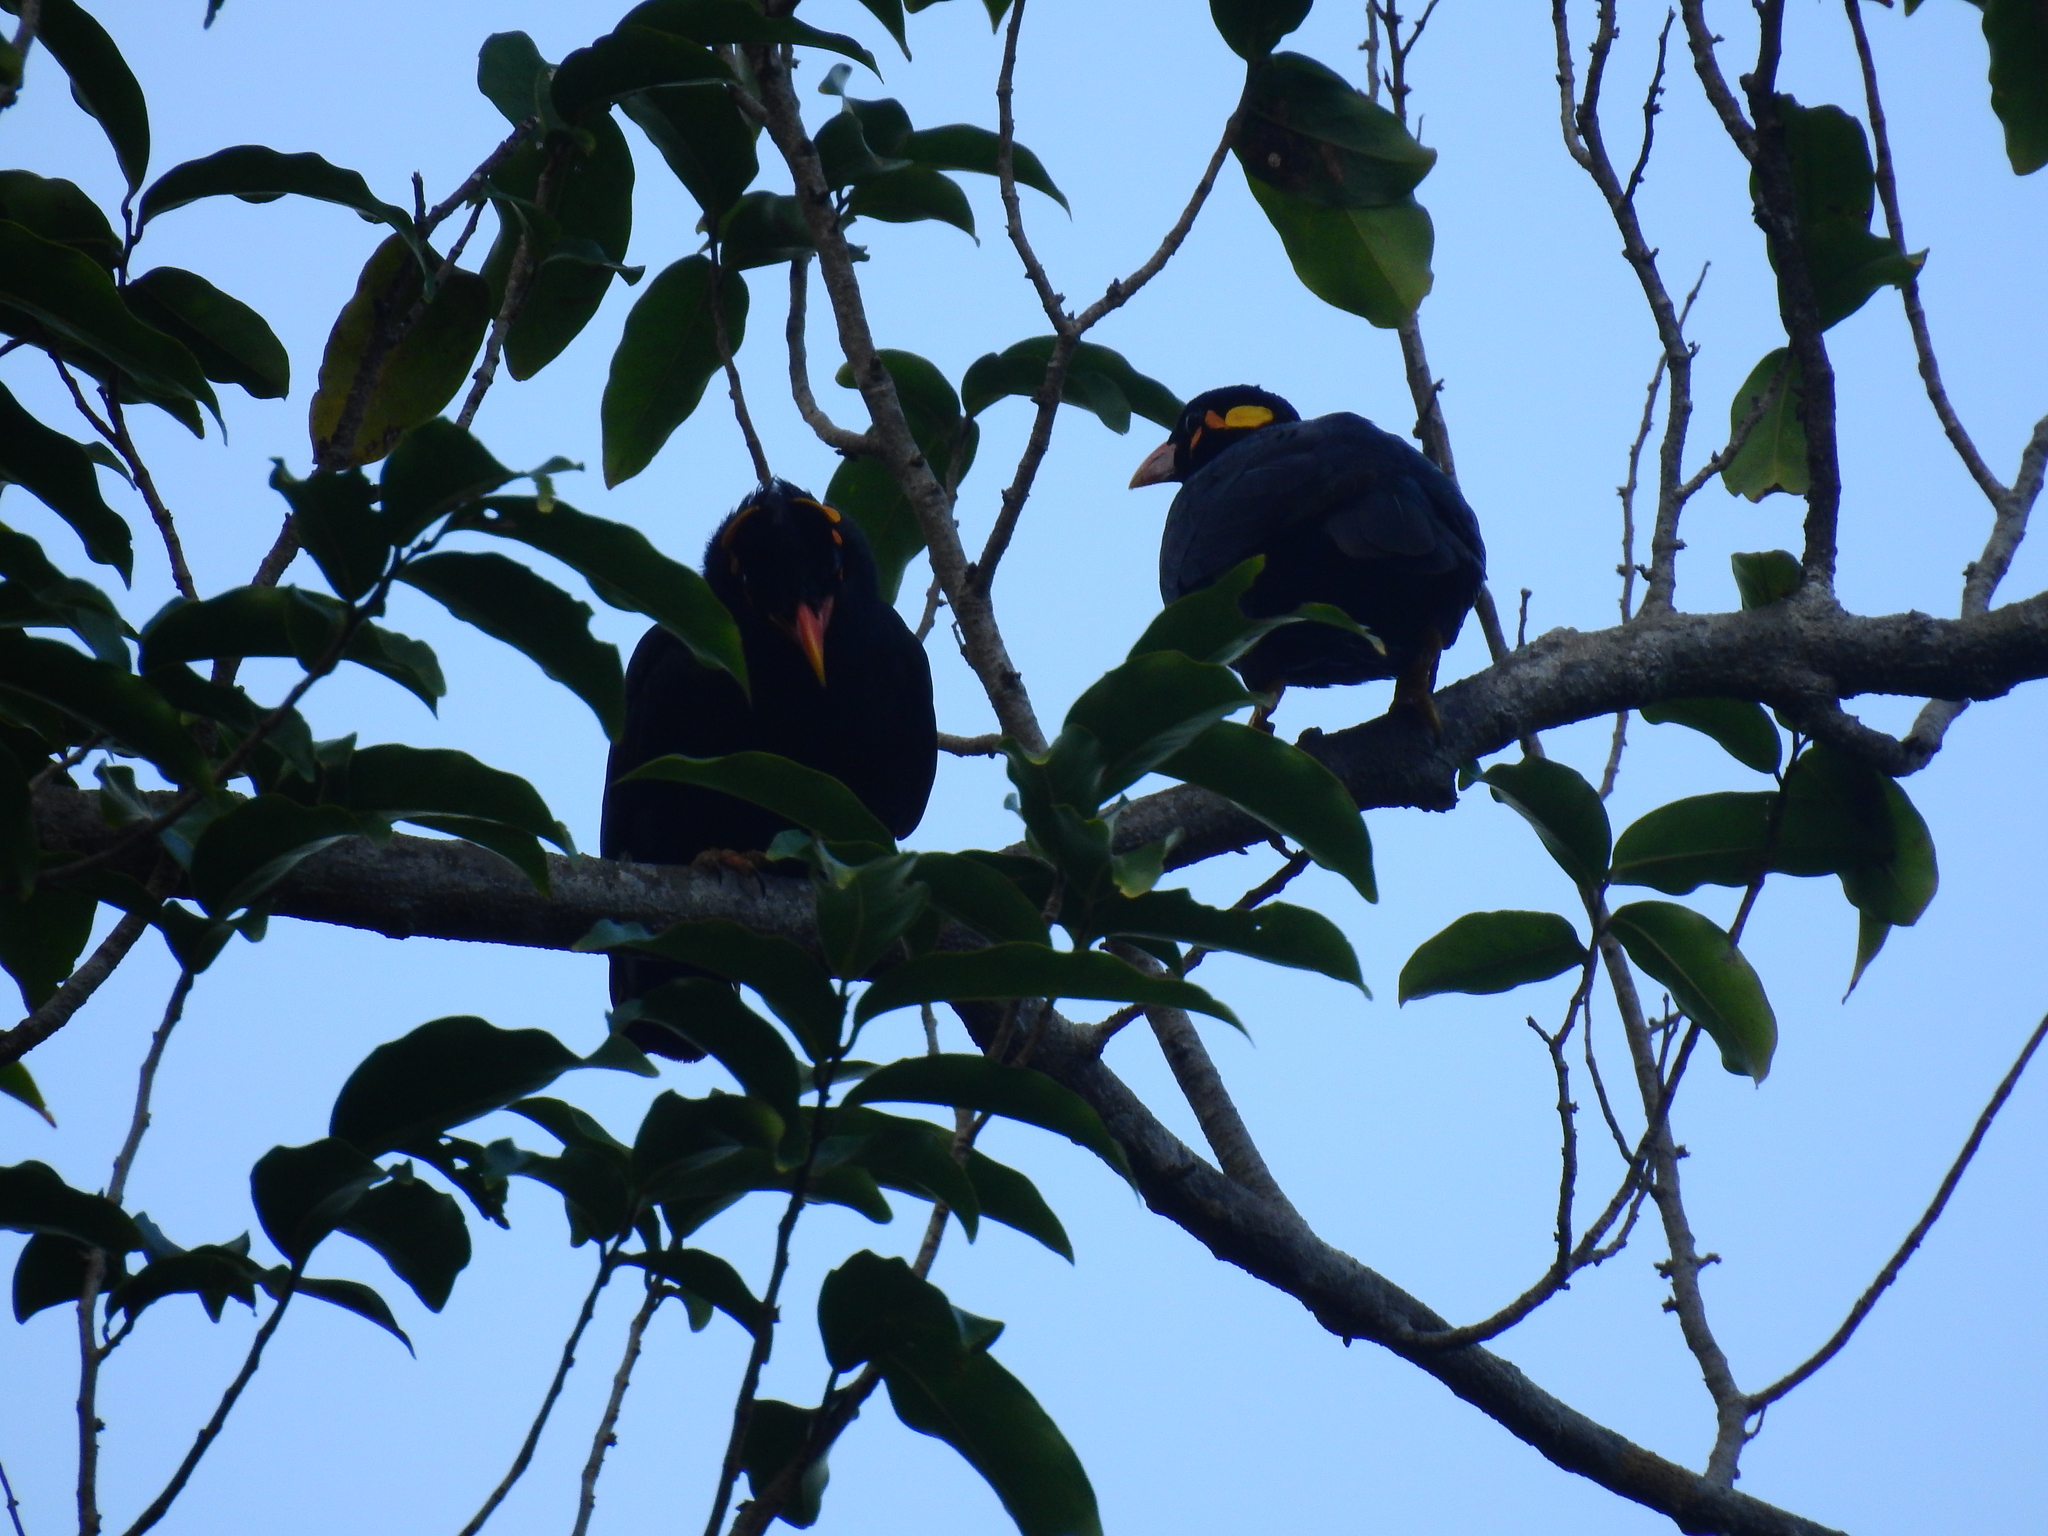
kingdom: Animalia
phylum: Chordata
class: Aves
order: Passeriformes
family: Sturnidae
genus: Gracula
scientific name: Gracula religiosa
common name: Common hill myna
